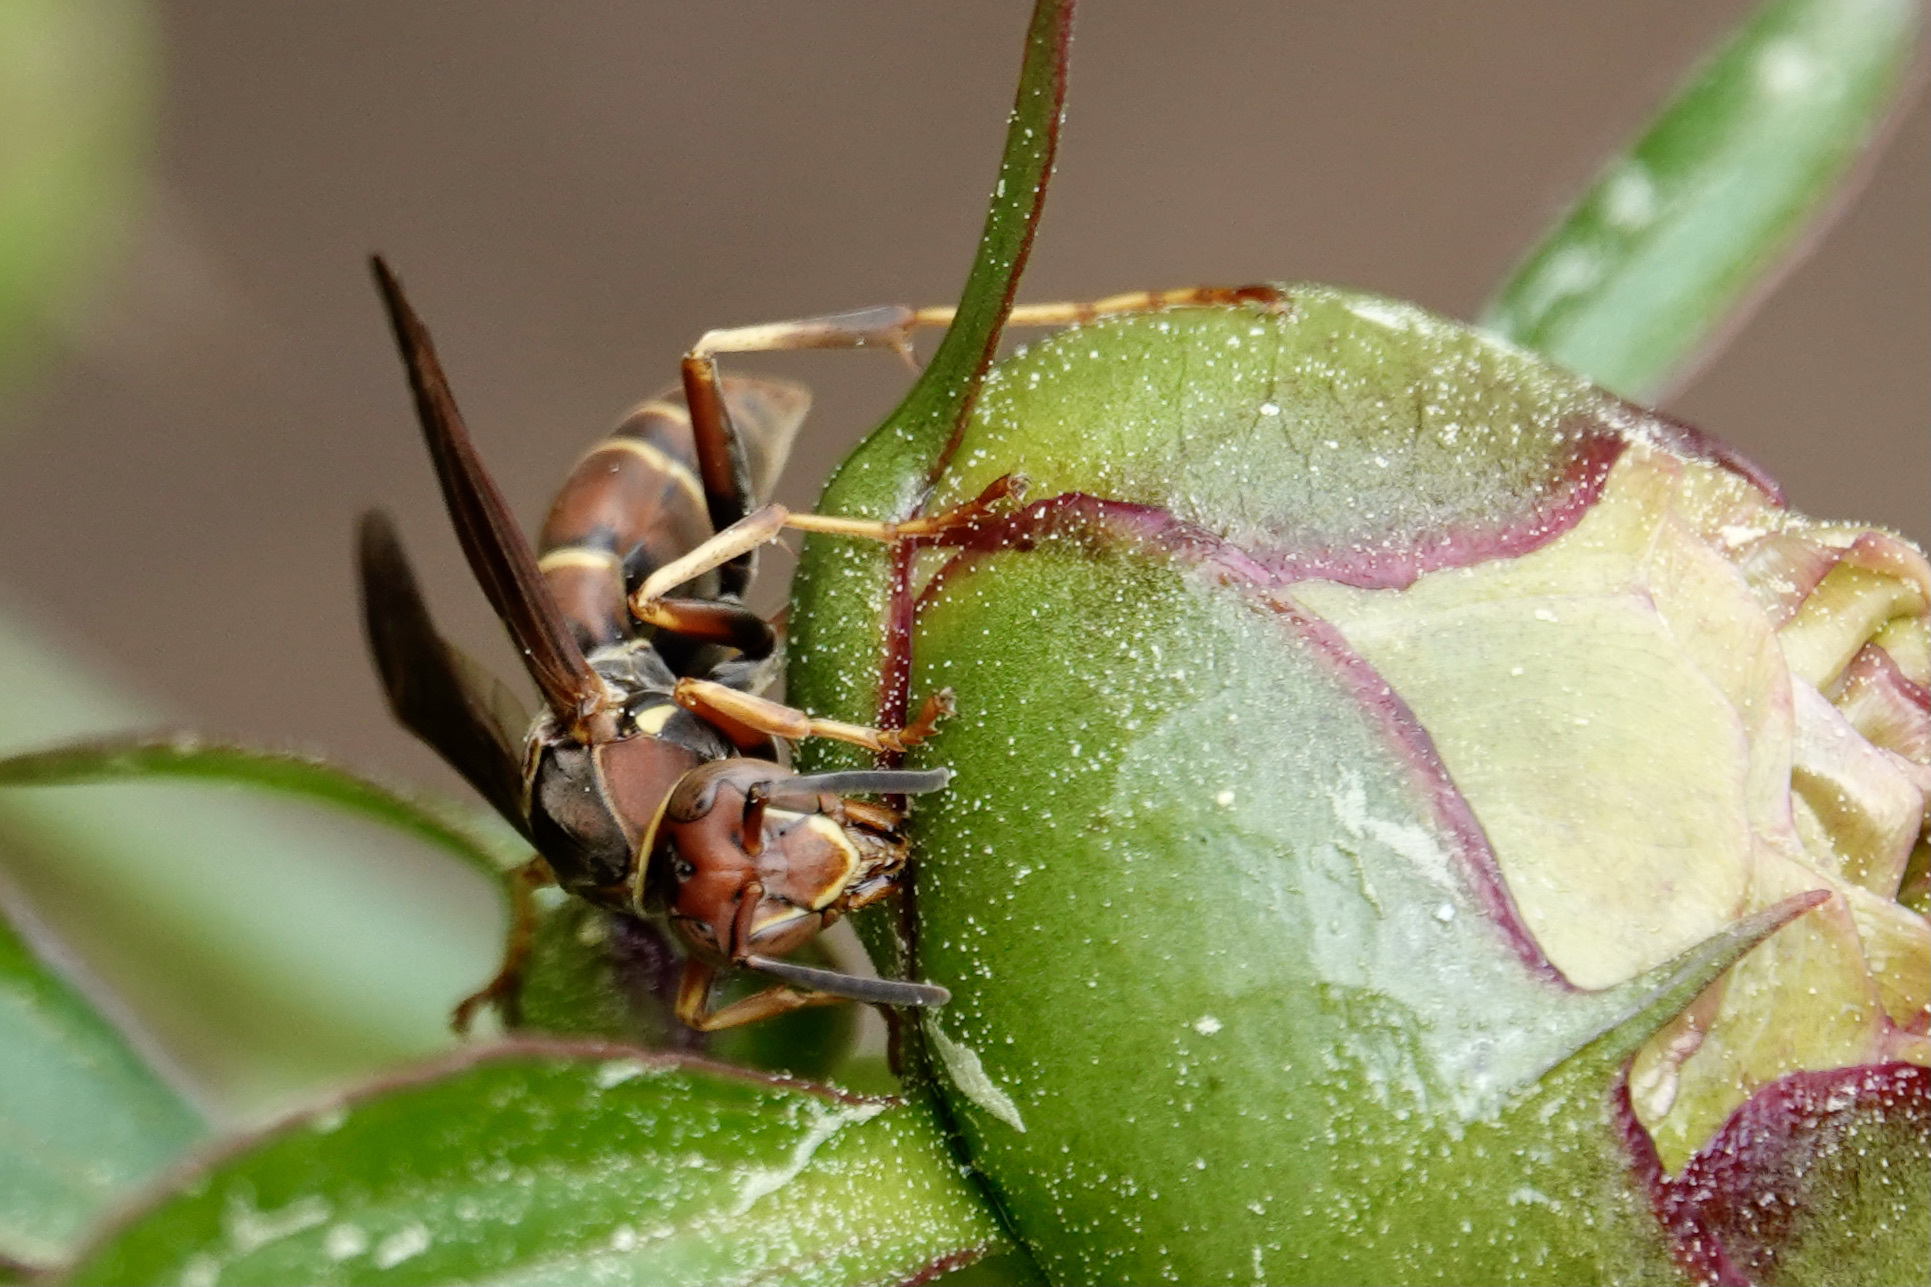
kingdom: Animalia
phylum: Arthropoda
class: Insecta
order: Hymenoptera
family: Eumenidae
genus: Polistes
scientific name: Polistes dorsalis
